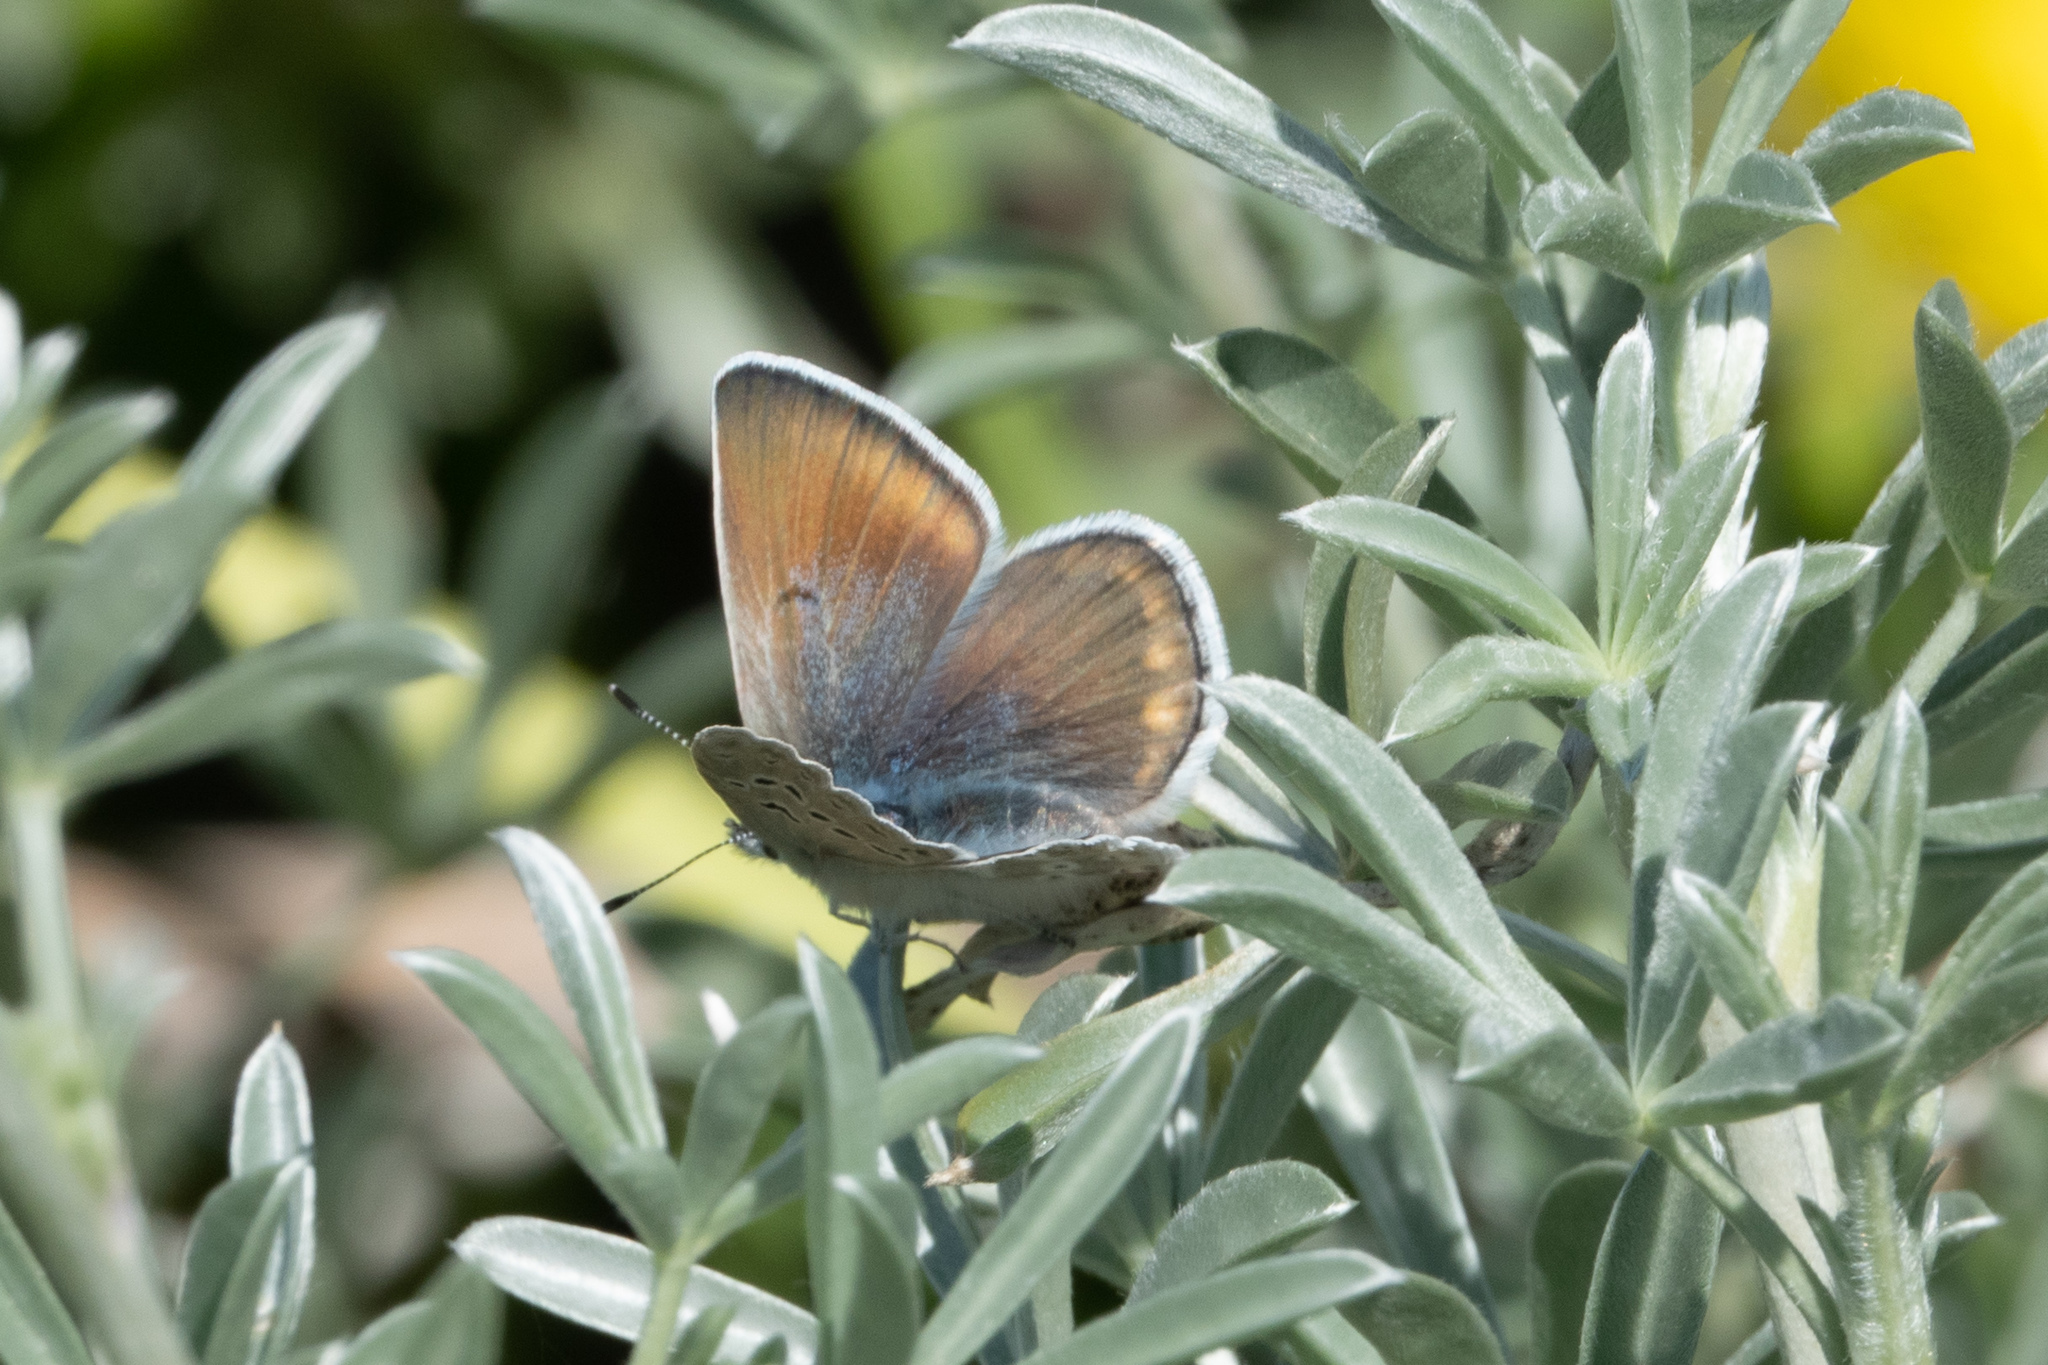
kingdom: Animalia
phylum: Arthropoda
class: Insecta
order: Lepidoptera
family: Lycaenidae
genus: Icaricia
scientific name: Icaricia icarioides
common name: Boisduval's blue
